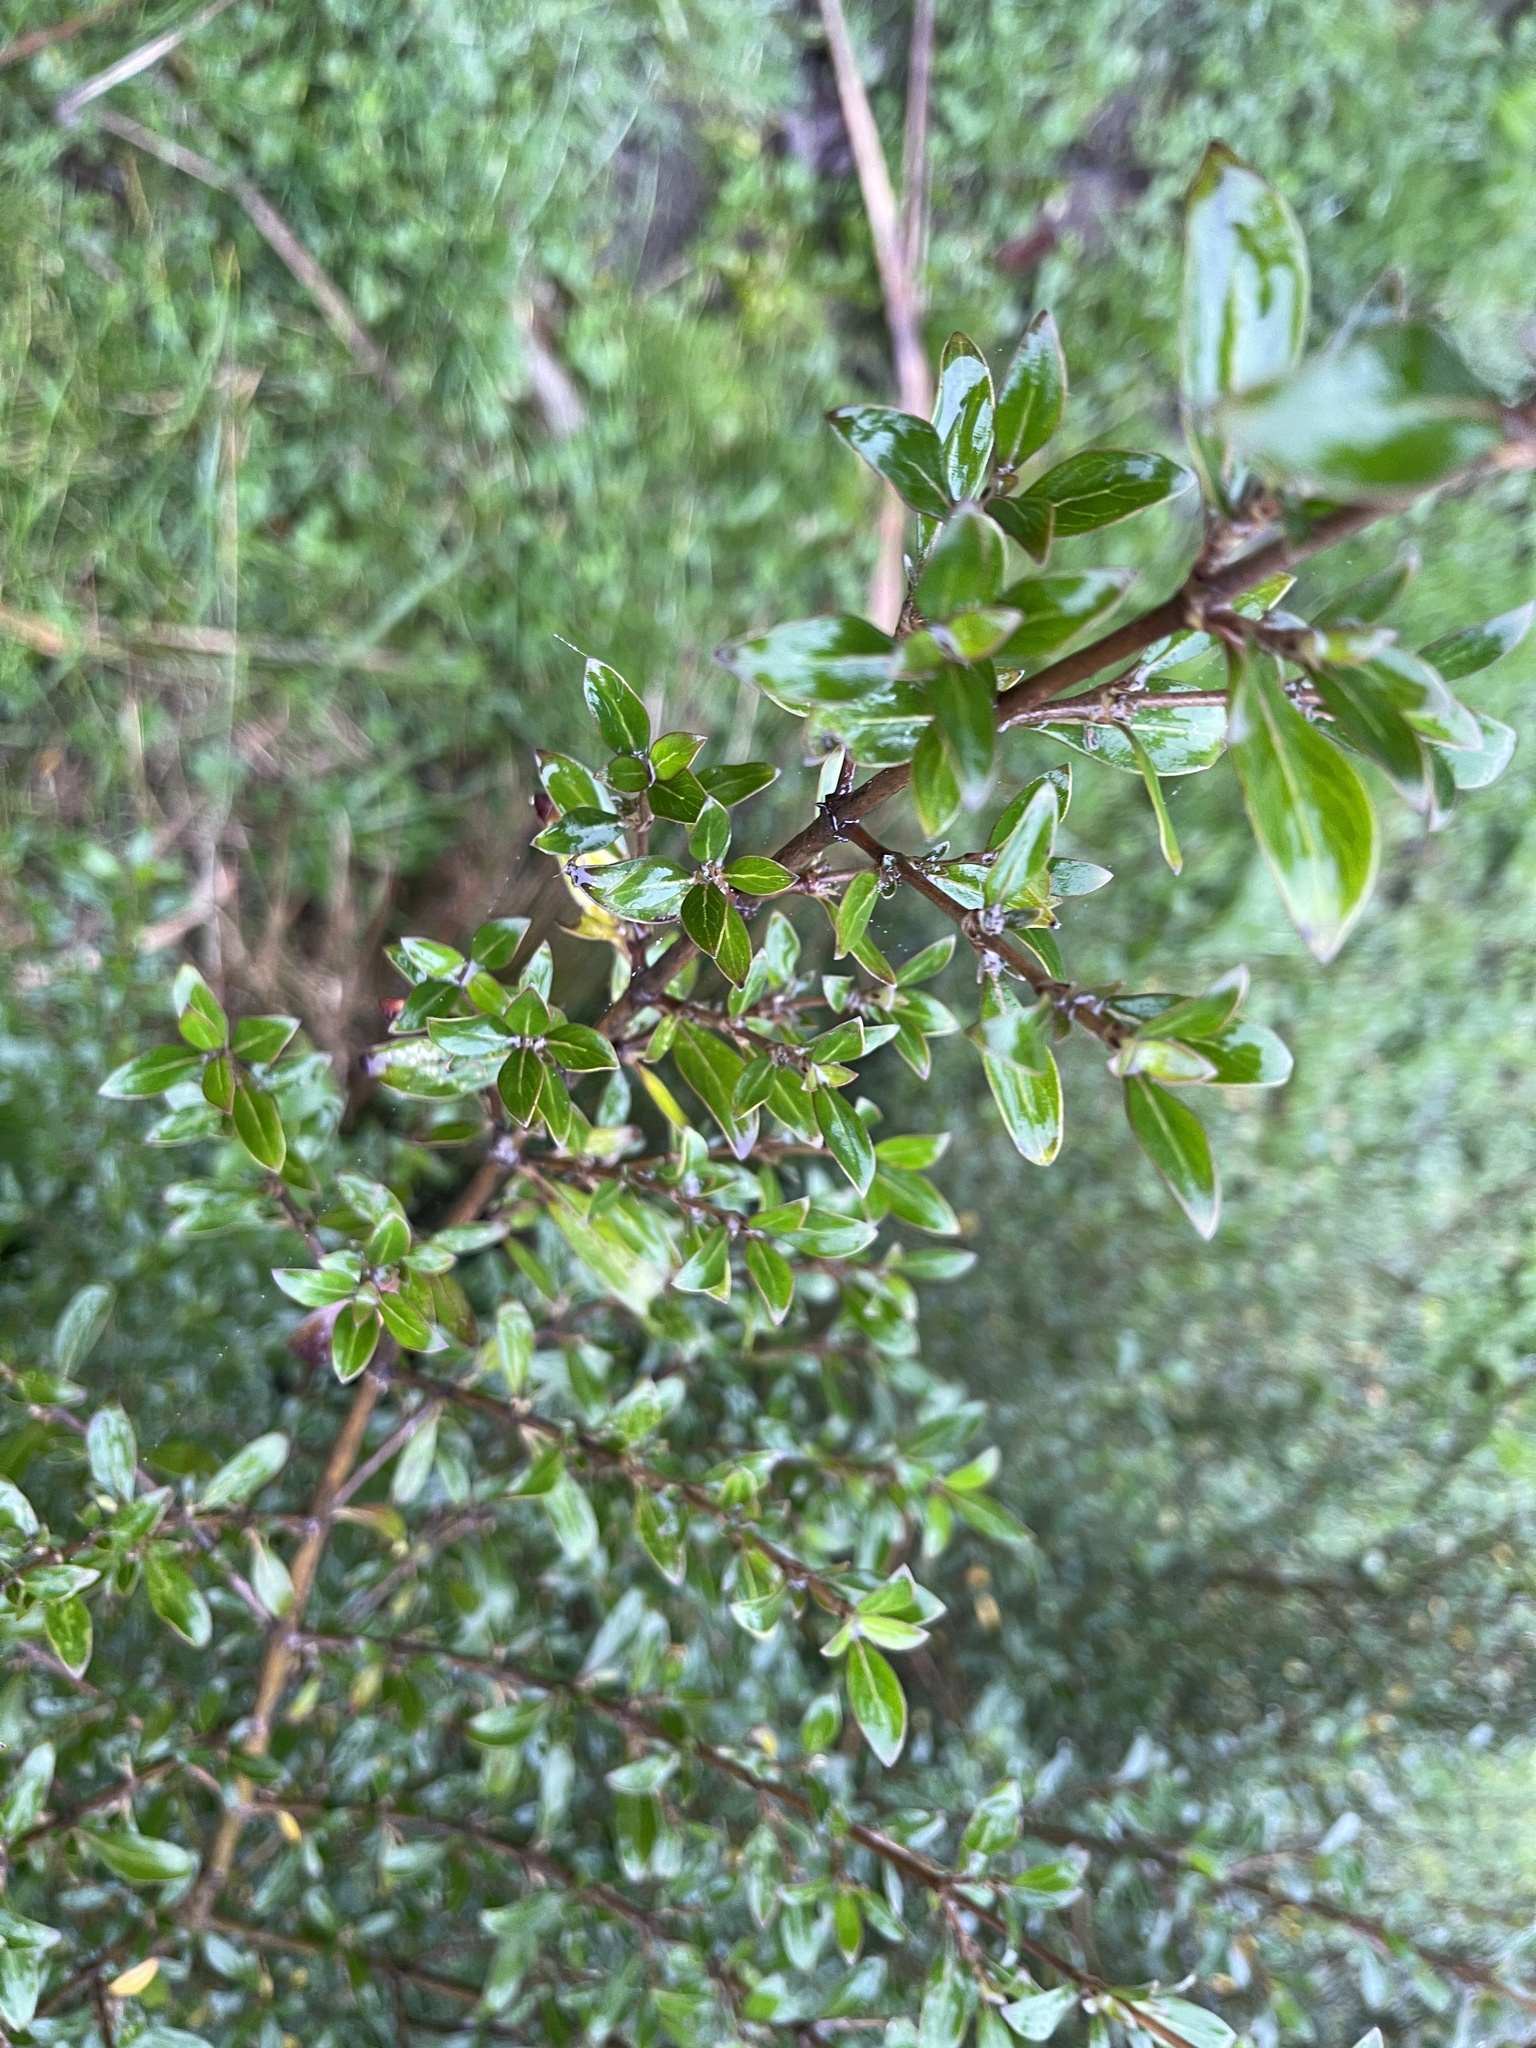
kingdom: Plantae
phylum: Tracheophyta
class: Magnoliopsida
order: Gentianales
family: Rubiaceae
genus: Coprosma
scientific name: Coprosma cunninghamii
